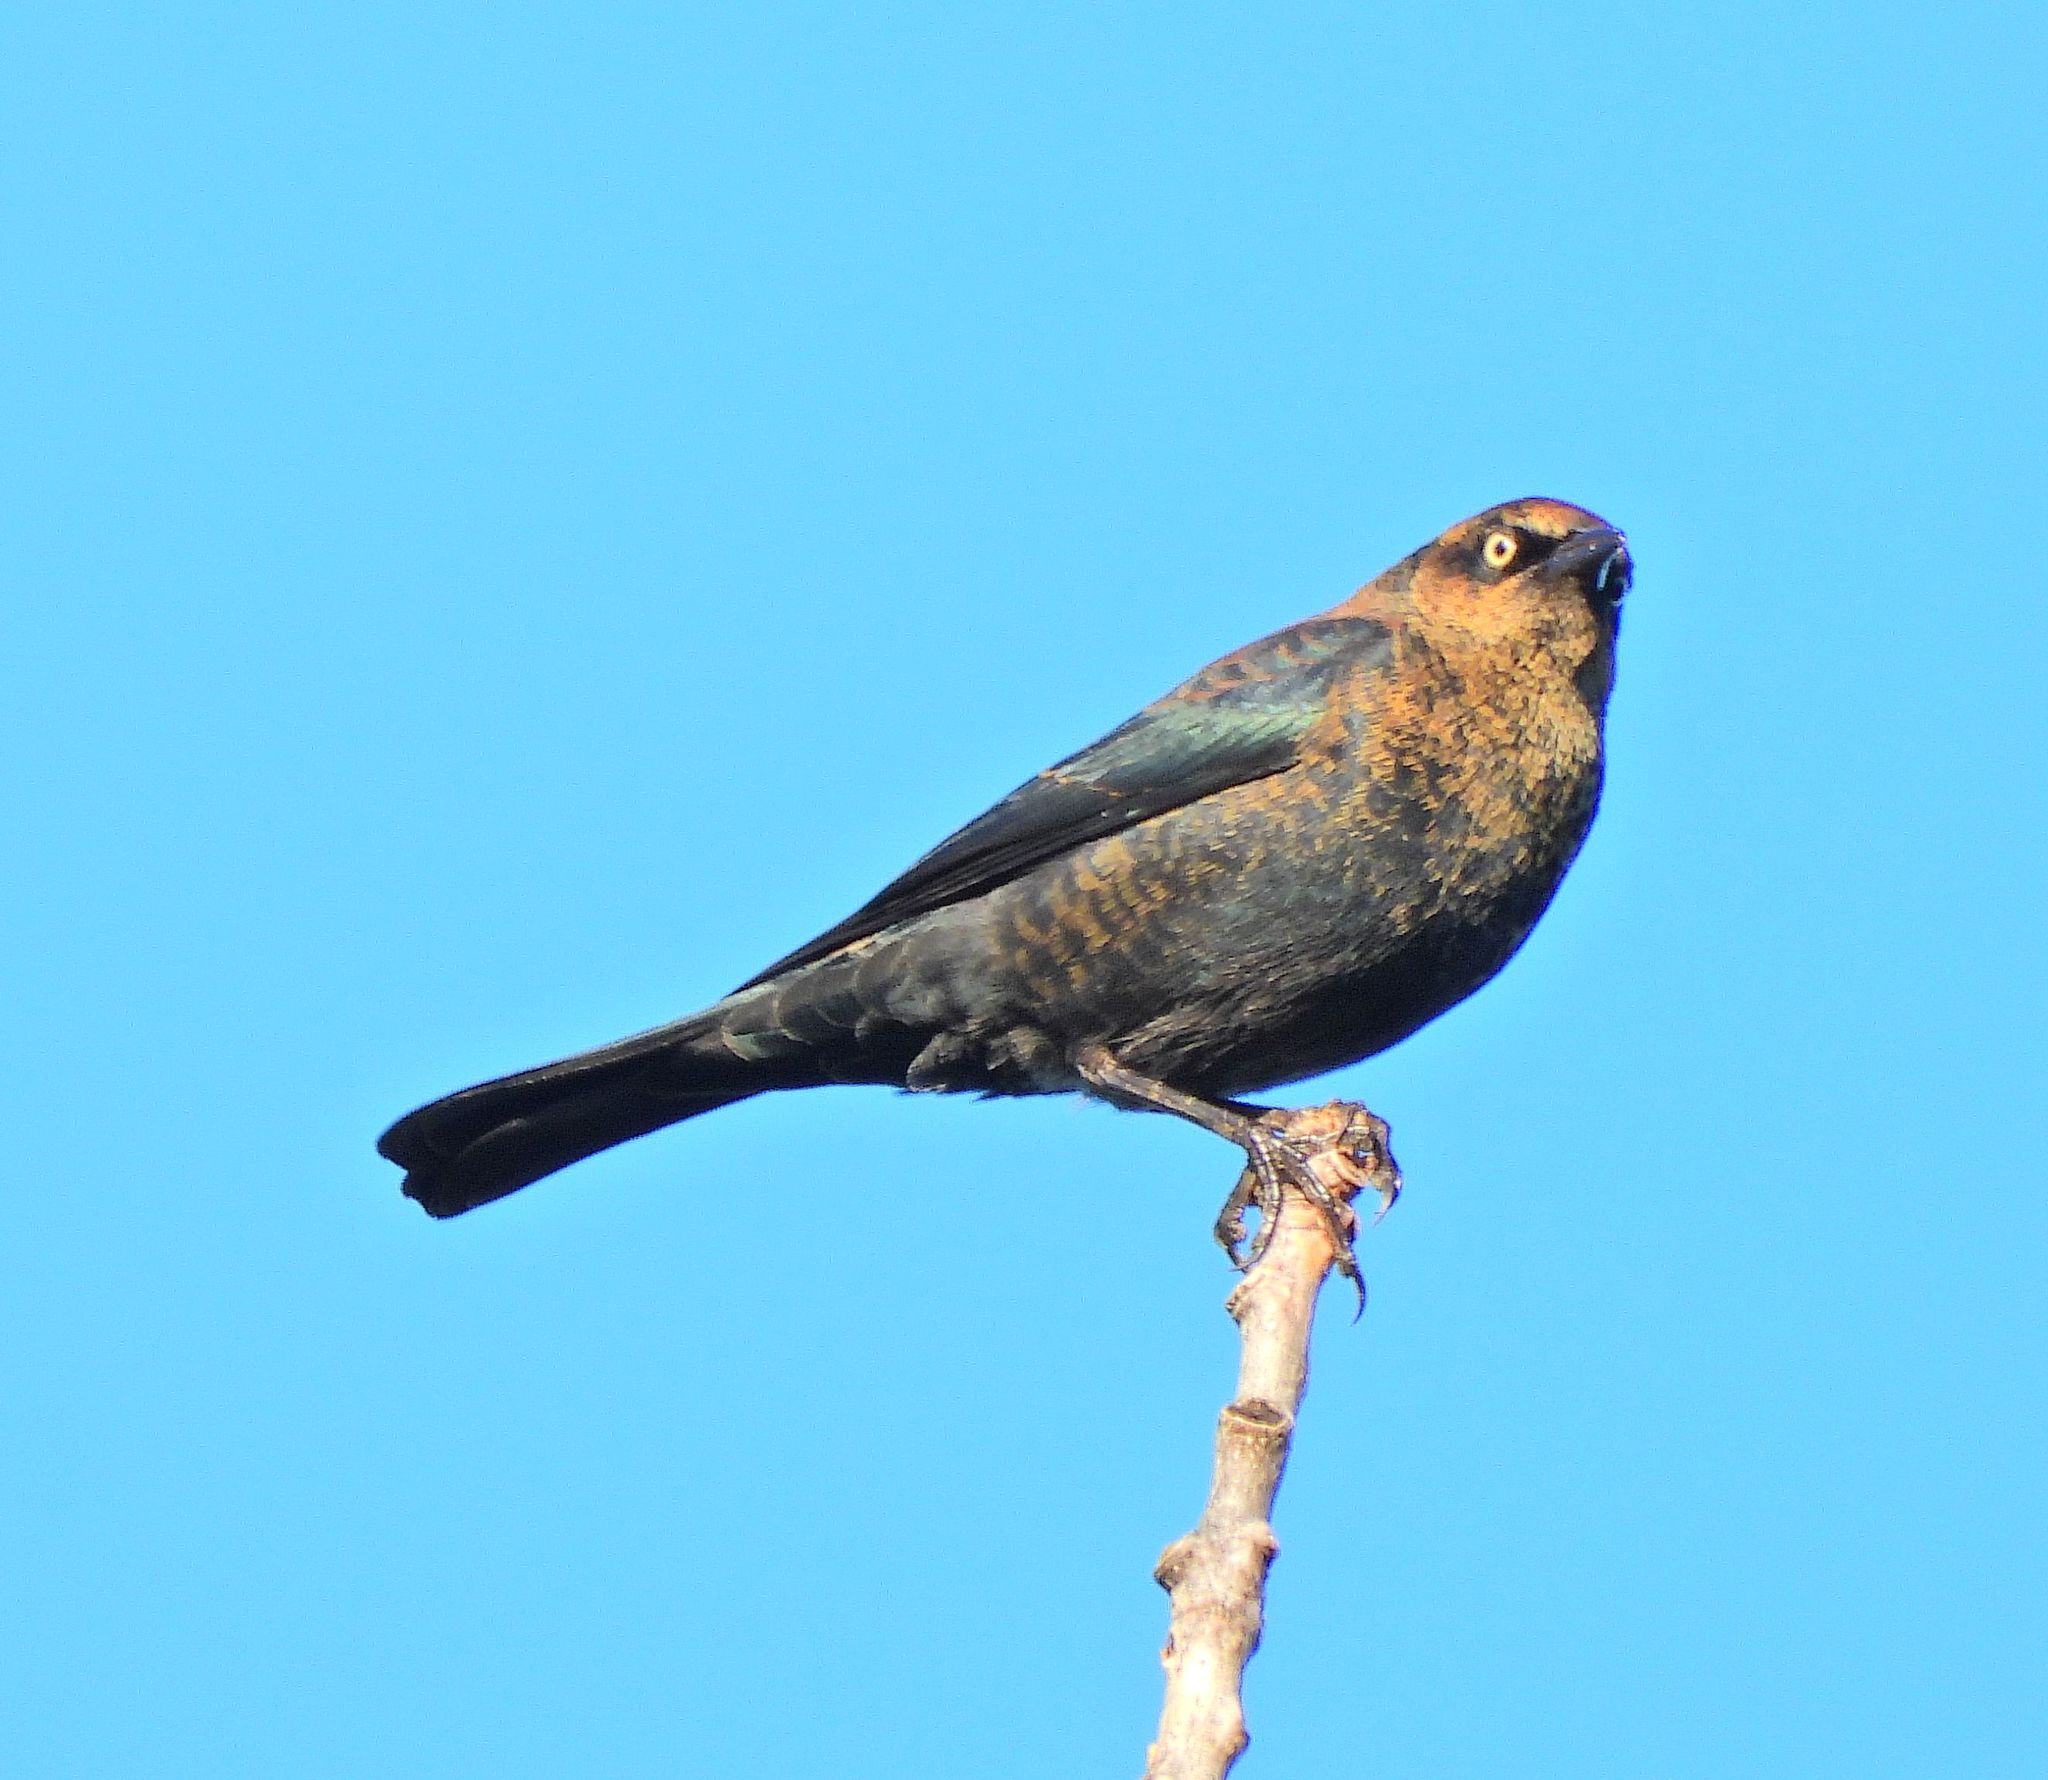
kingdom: Animalia
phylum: Chordata
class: Aves
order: Passeriformes
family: Icteridae
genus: Euphagus
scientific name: Euphagus carolinus
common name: Rusty blackbird
